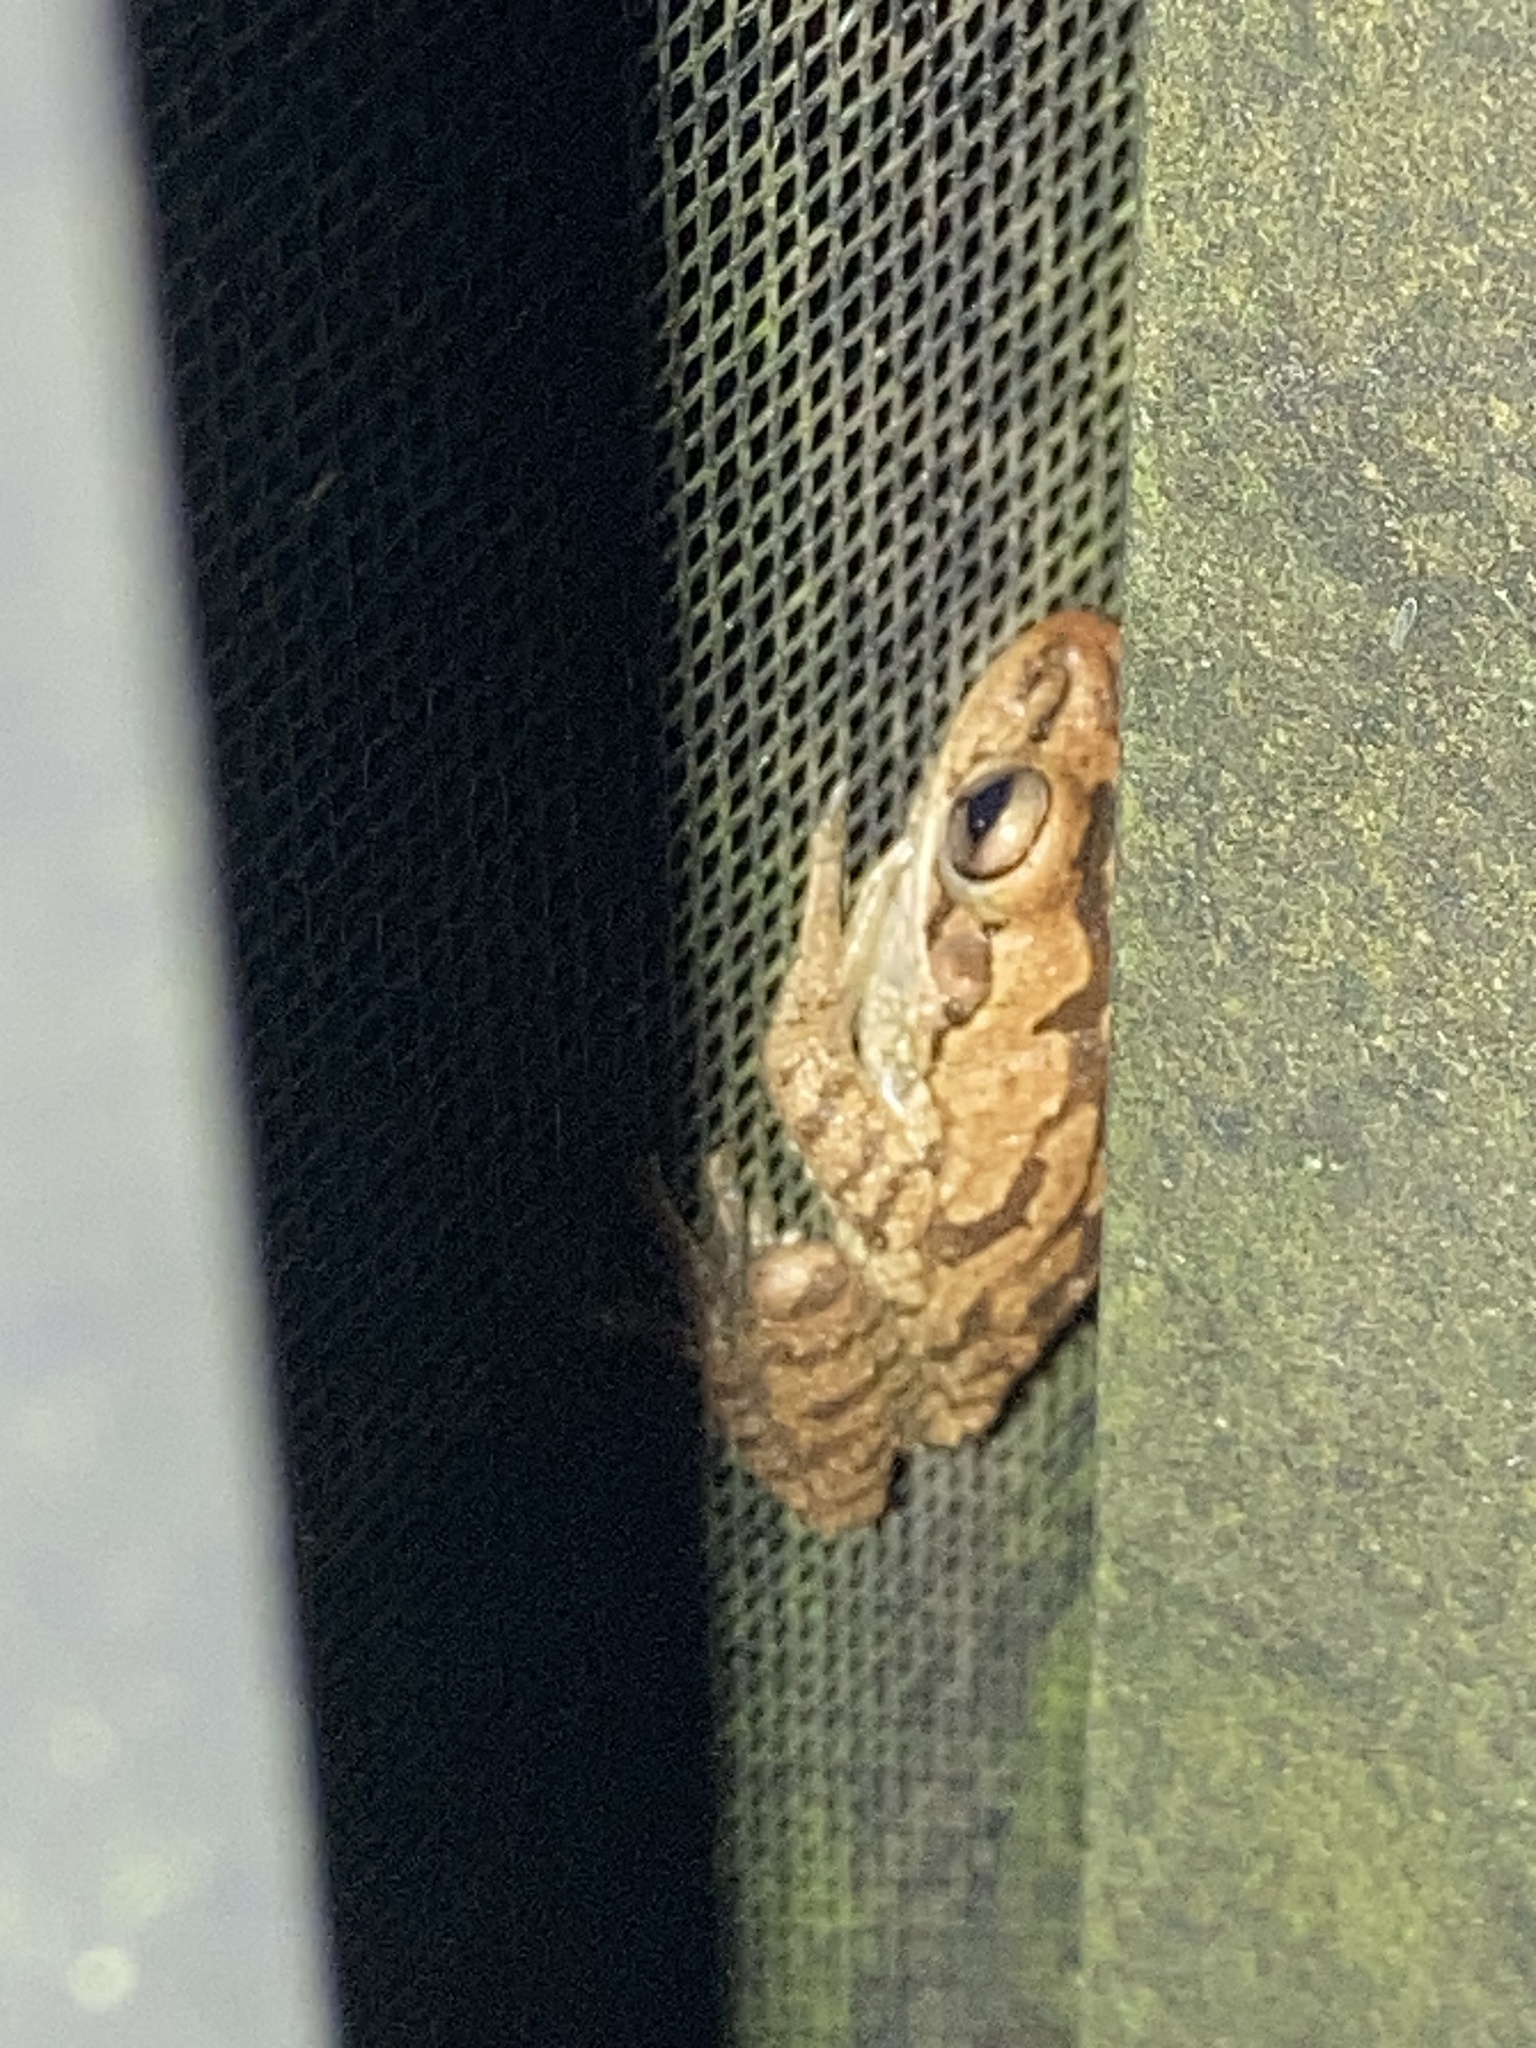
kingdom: Animalia
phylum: Chordata
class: Amphibia
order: Anura
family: Hylidae
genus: Osteopilus
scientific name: Osteopilus septentrionalis
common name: Cuban treefrog
